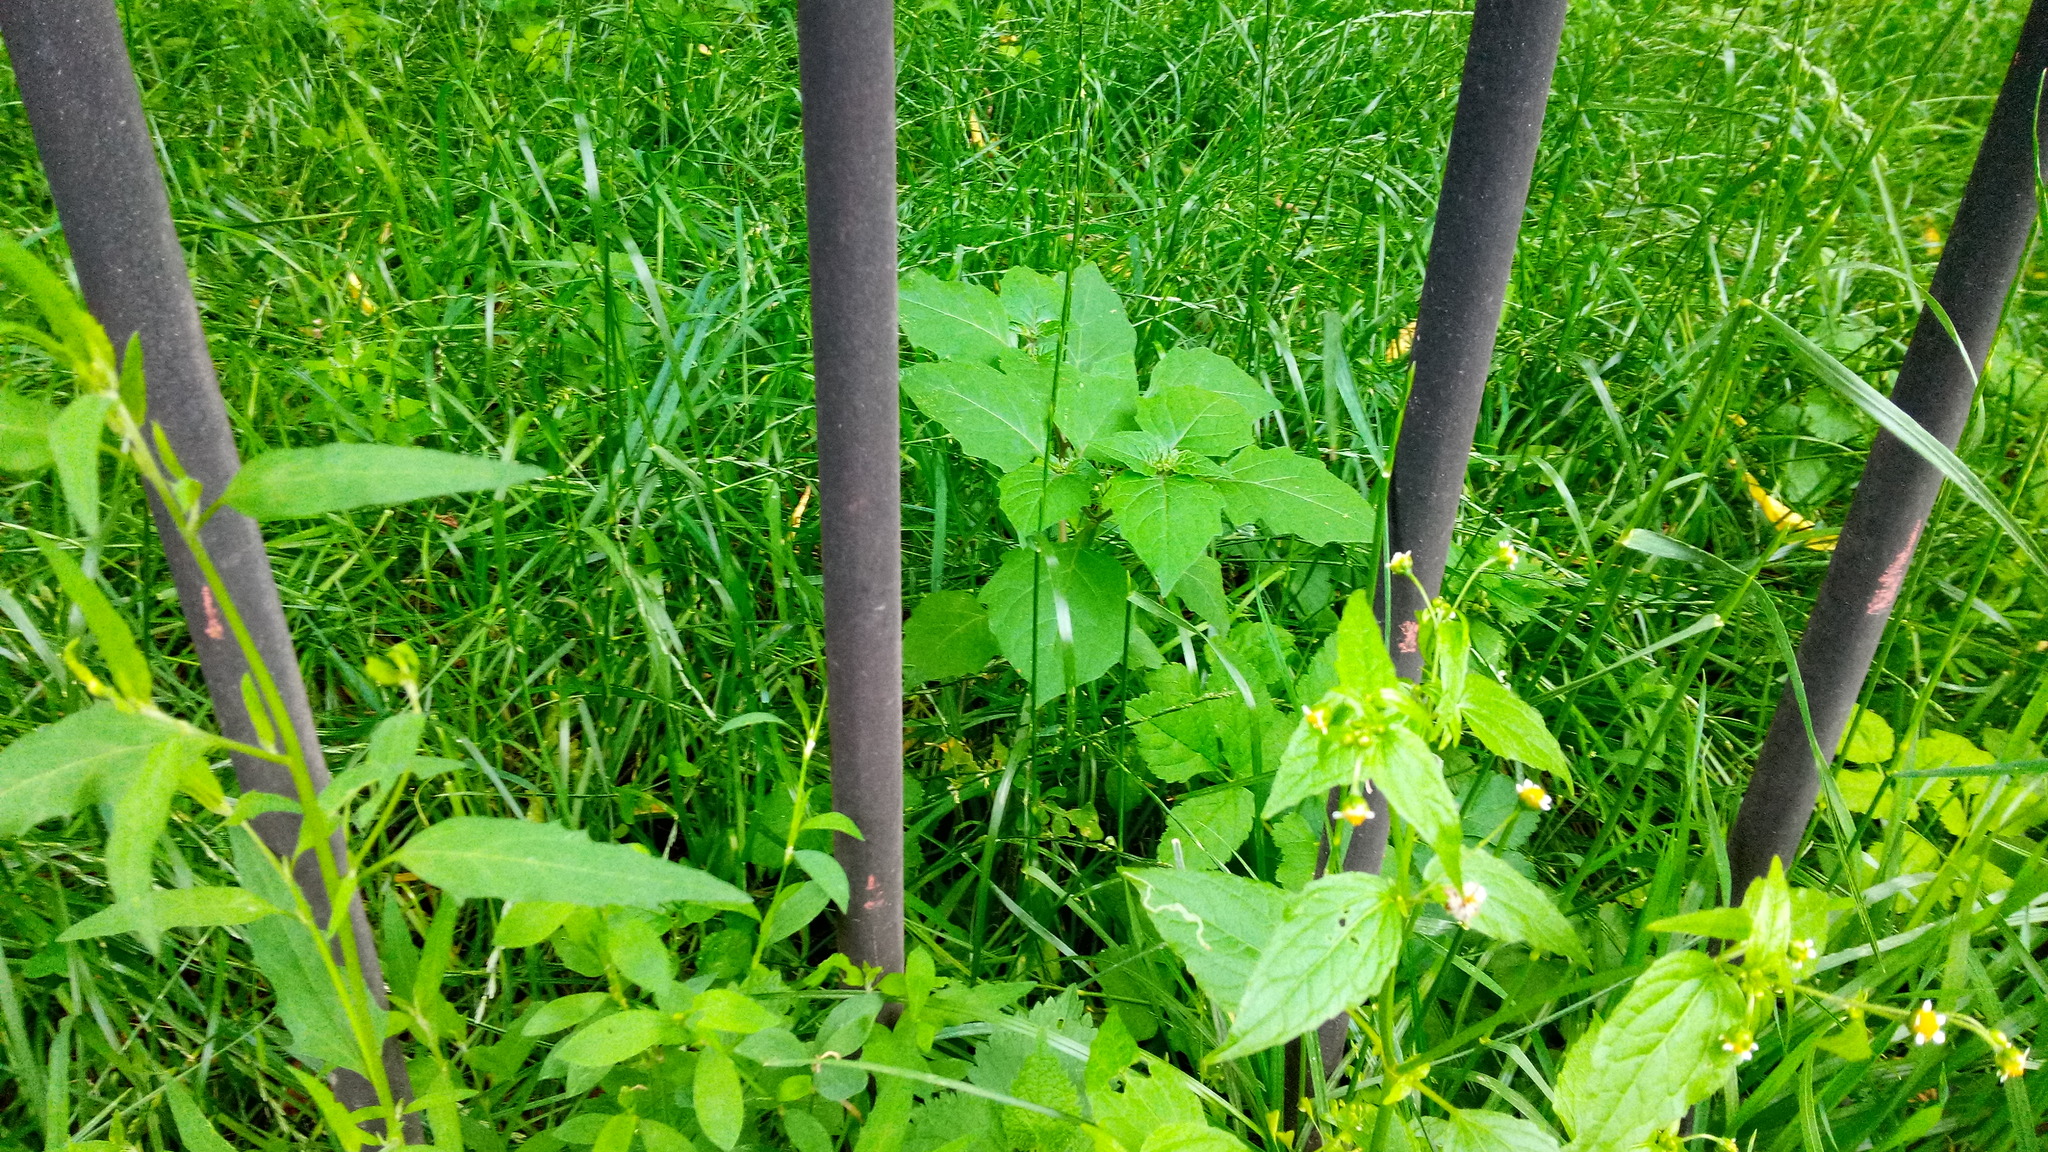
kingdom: Plantae
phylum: Tracheophyta
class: Magnoliopsida
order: Solanales
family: Solanaceae
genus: Solanum
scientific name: Solanum nigrum
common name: Black nightshade
